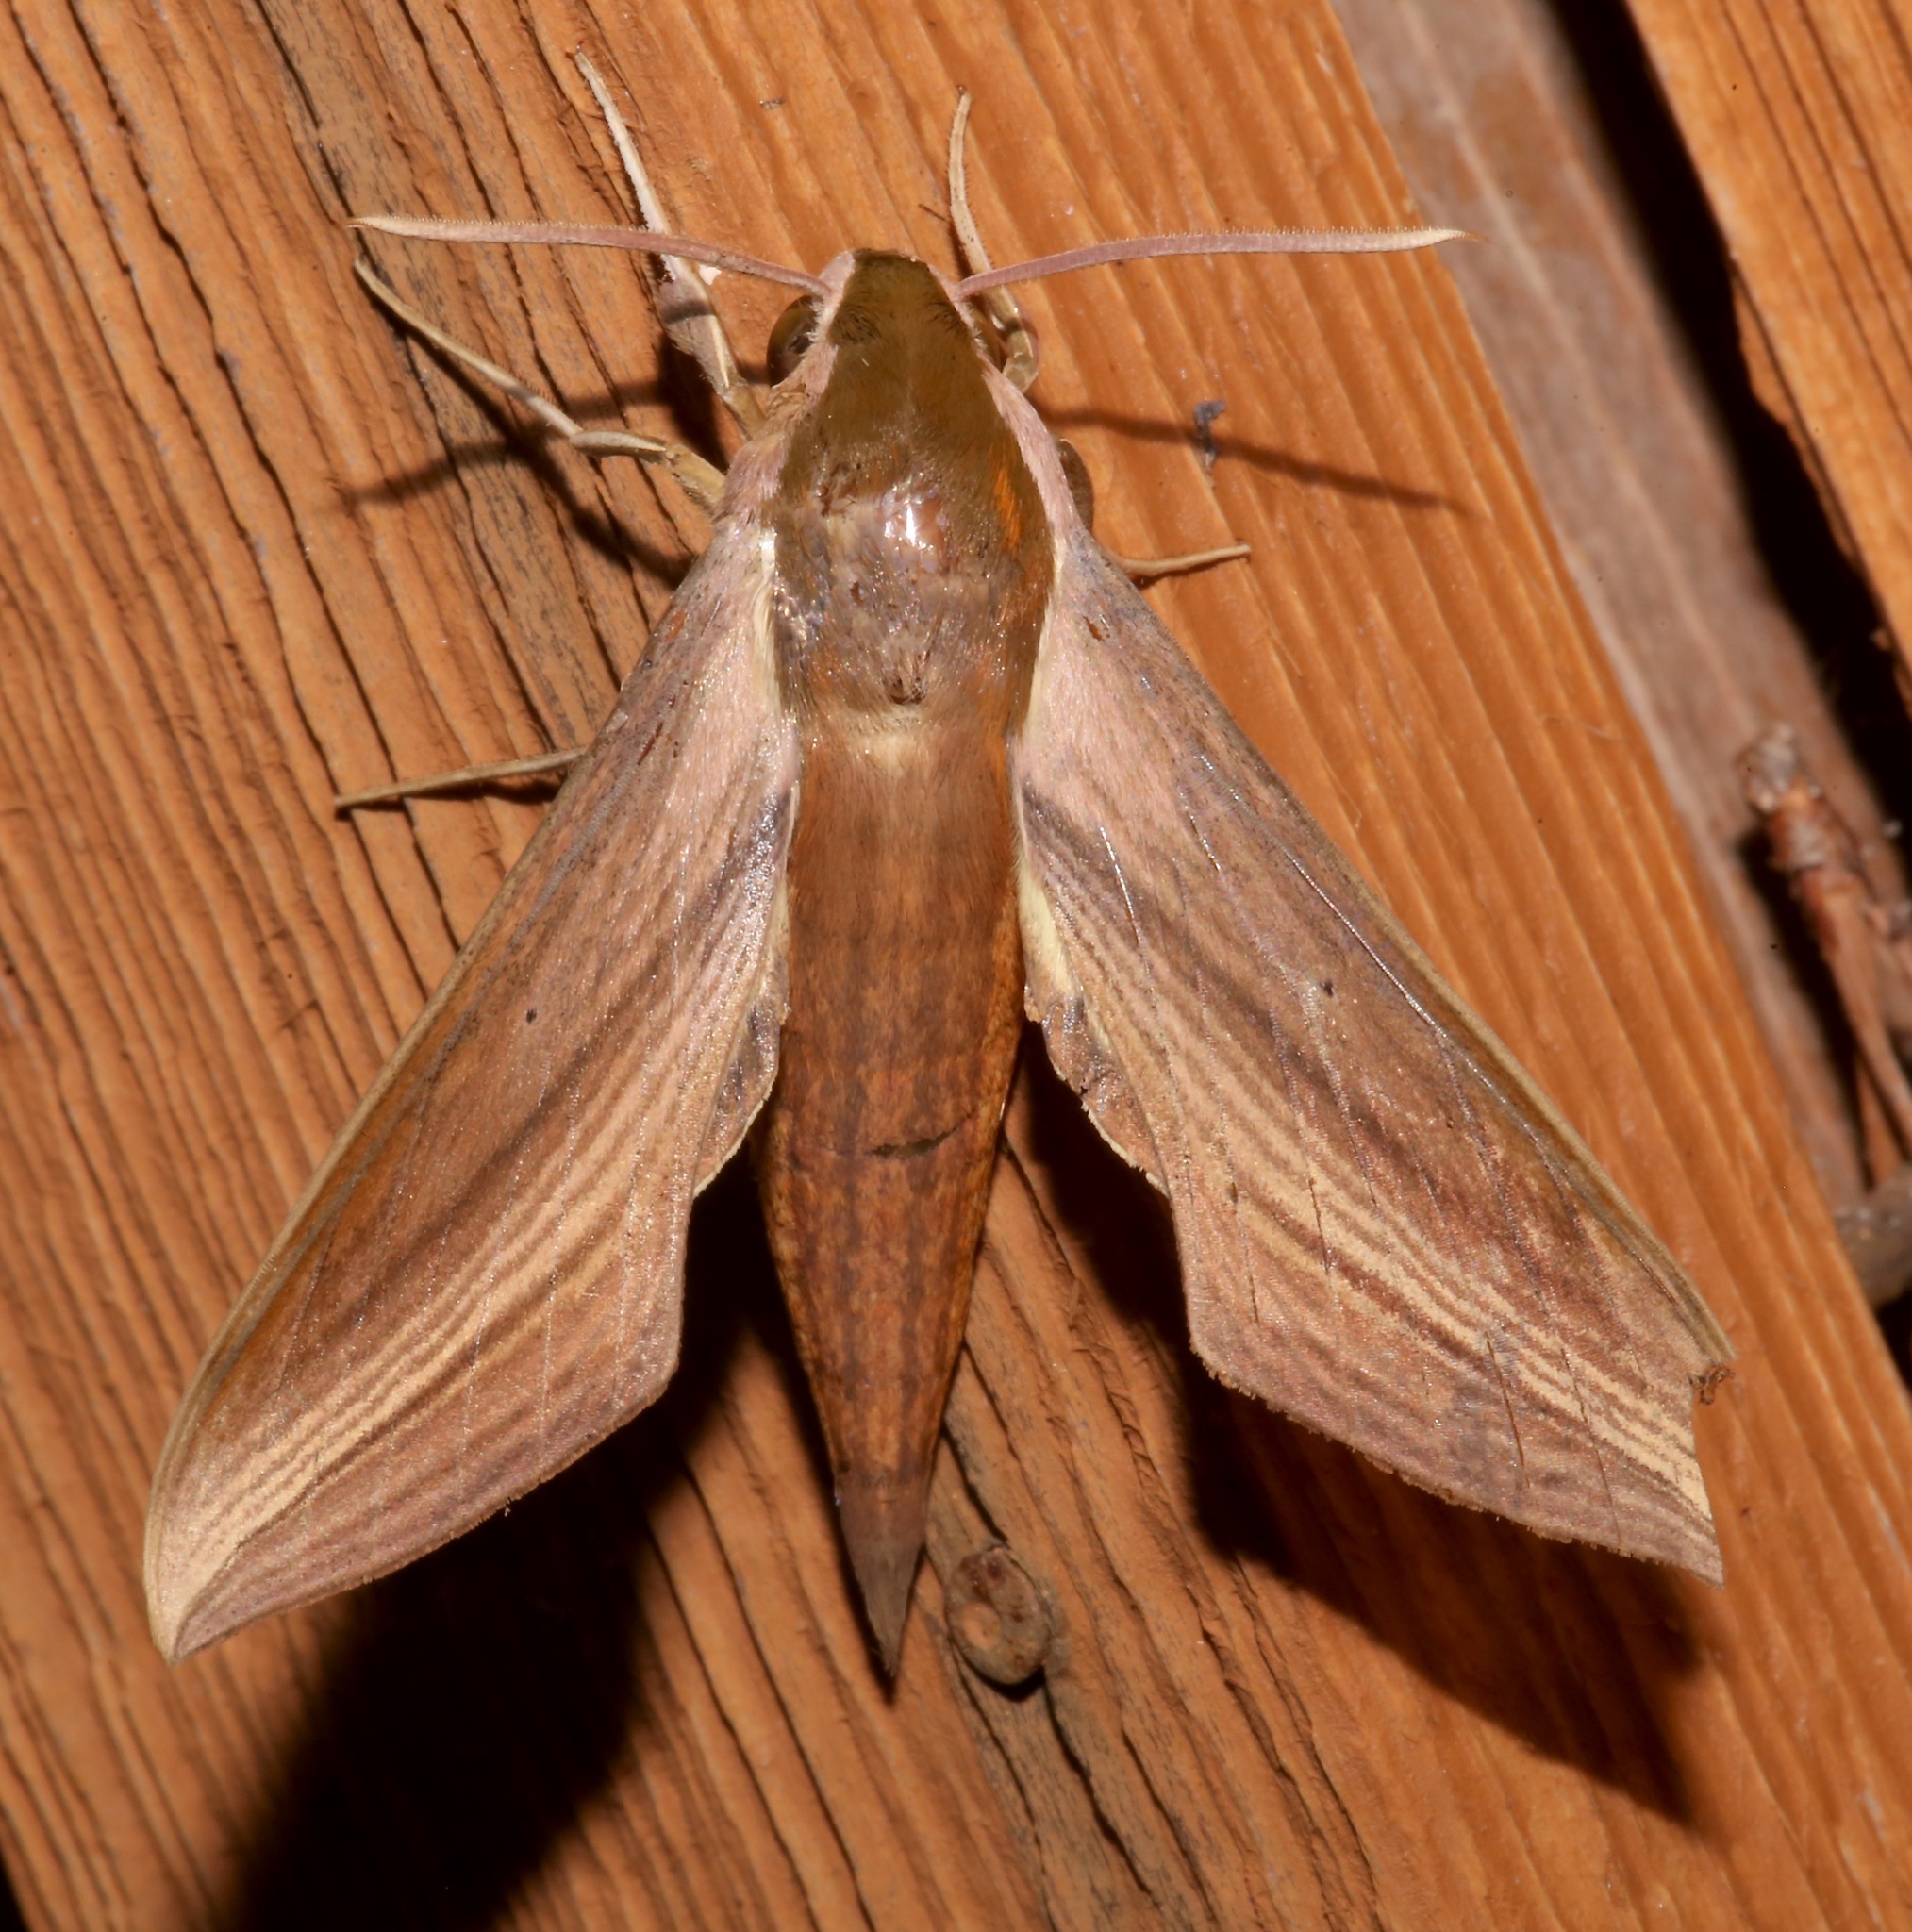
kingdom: Animalia
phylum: Arthropoda
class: Insecta
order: Lepidoptera
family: Sphingidae
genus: Xylophanes
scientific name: Xylophanes tersa
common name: Tersa sphinx
